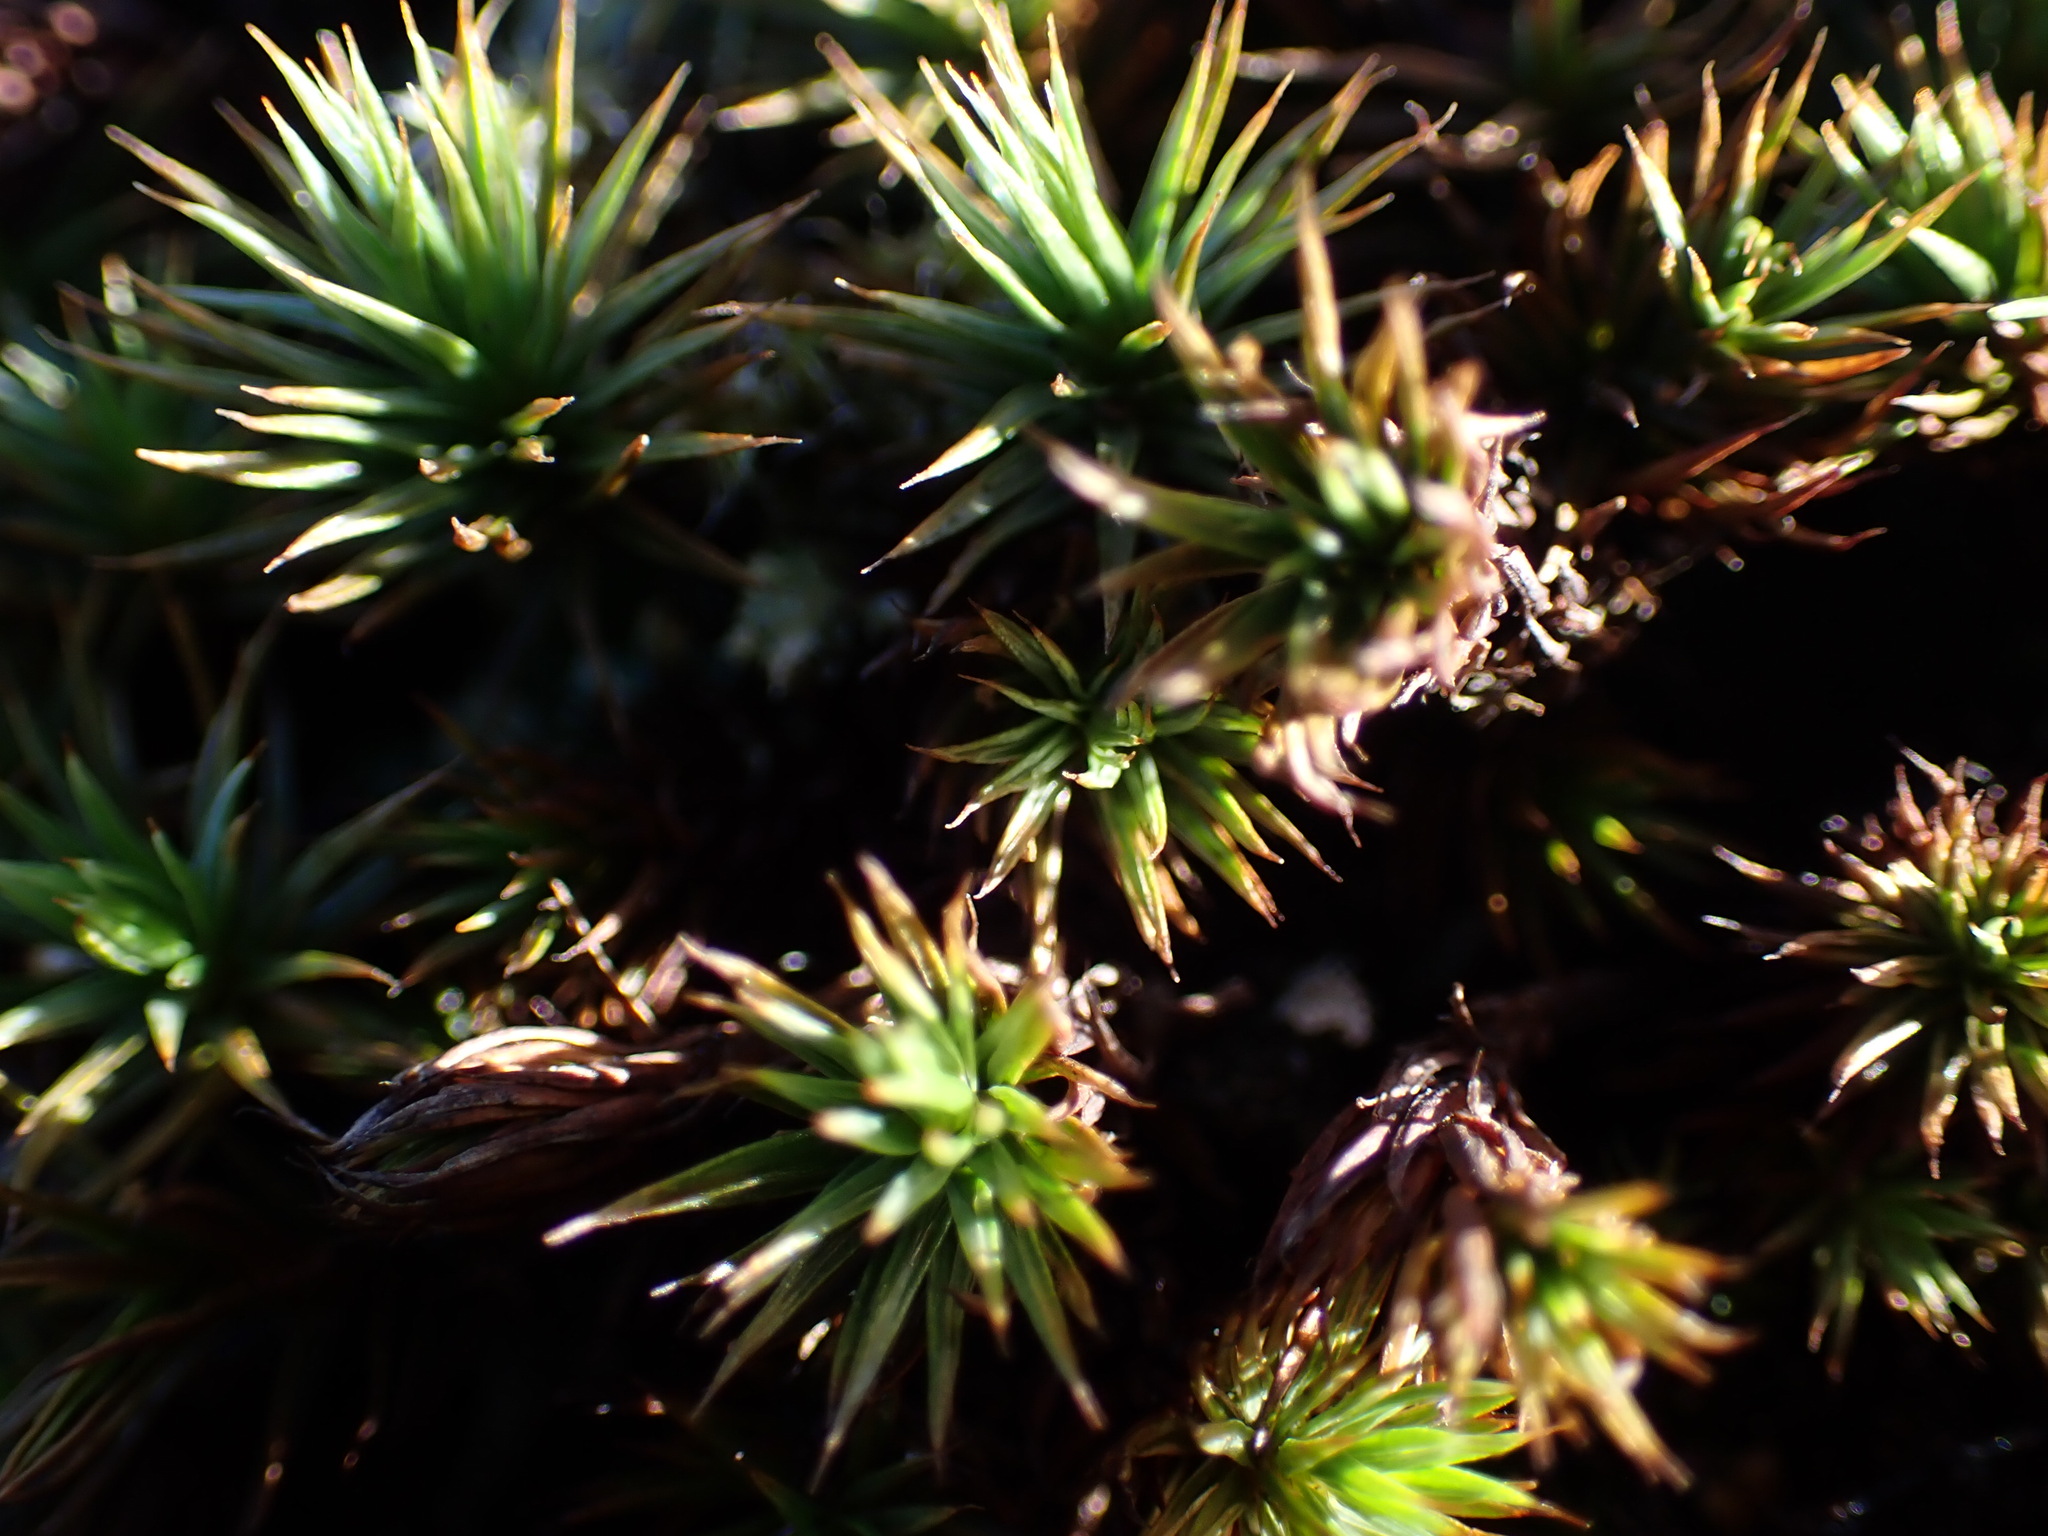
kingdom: Plantae
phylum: Bryophyta
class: Polytrichopsida
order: Polytrichales
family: Polytrichaceae
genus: Polytrichum
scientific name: Polytrichum juniperinum
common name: Juniper haircap moss
